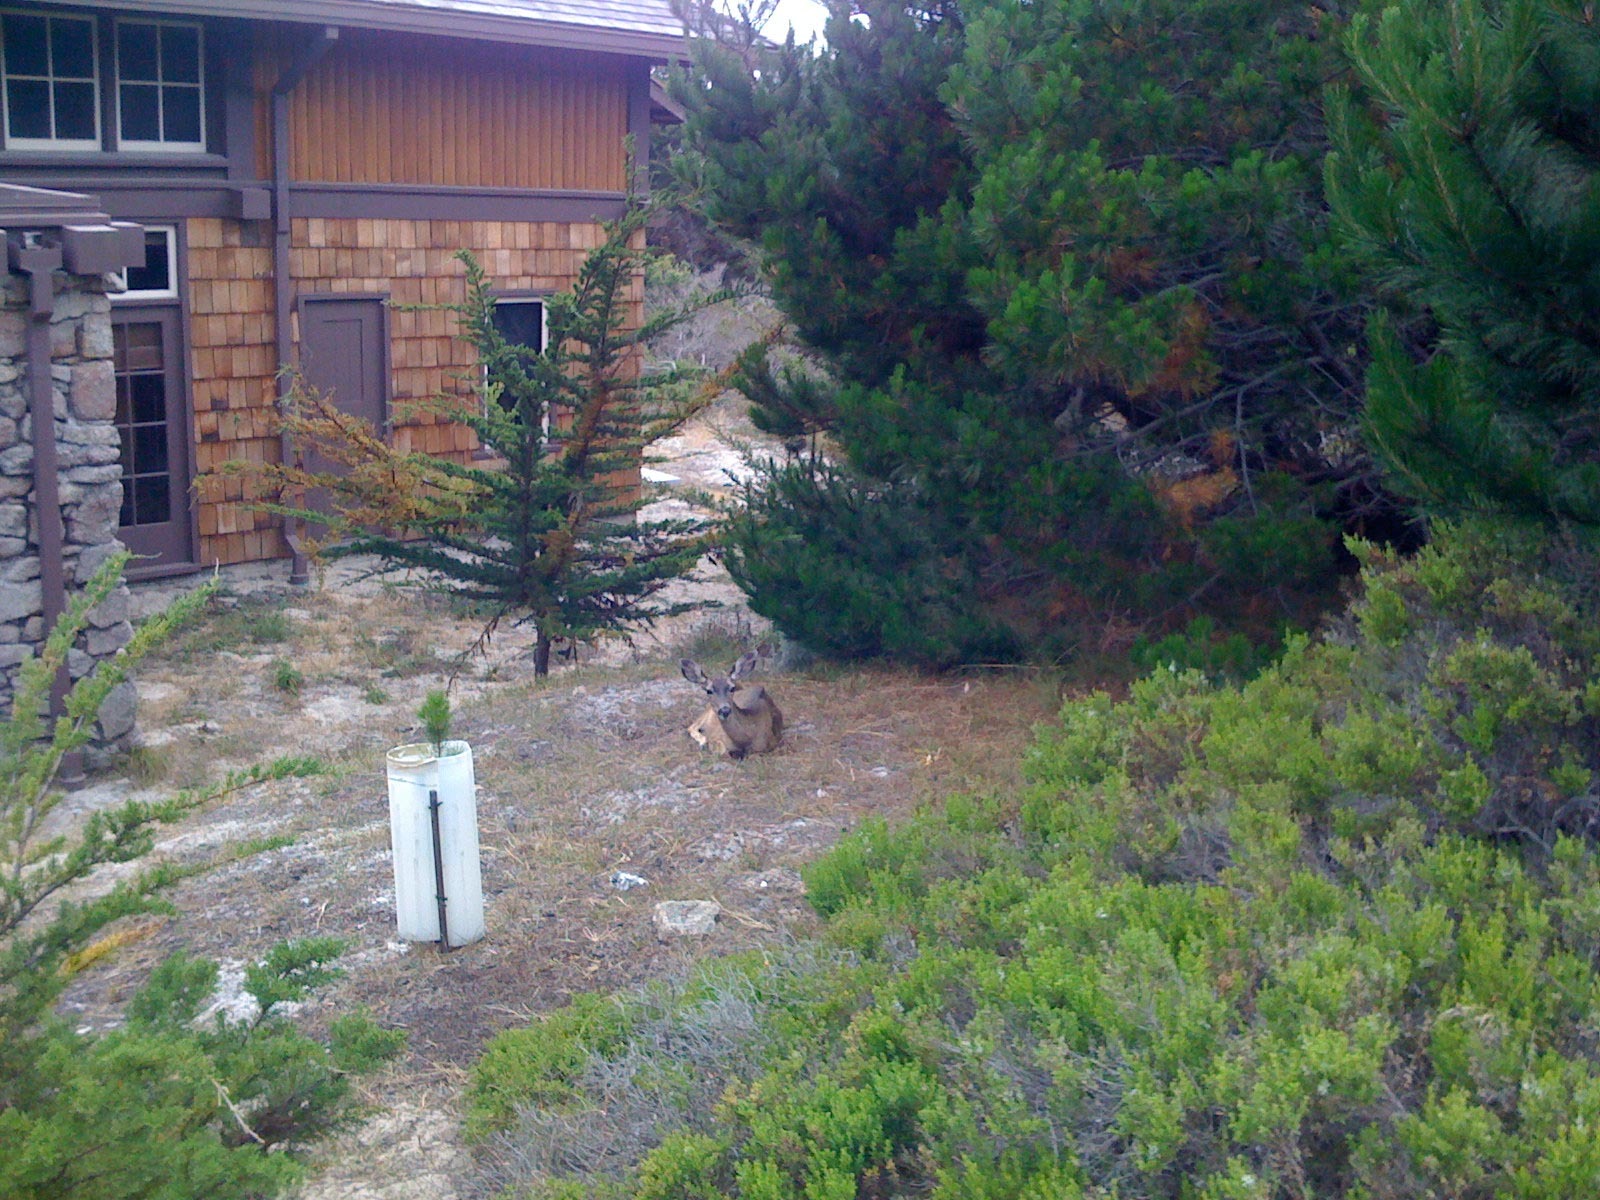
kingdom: Animalia
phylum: Chordata
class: Mammalia
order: Artiodactyla
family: Cervidae
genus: Odocoileus
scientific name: Odocoileus hemionus
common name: Mule deer
